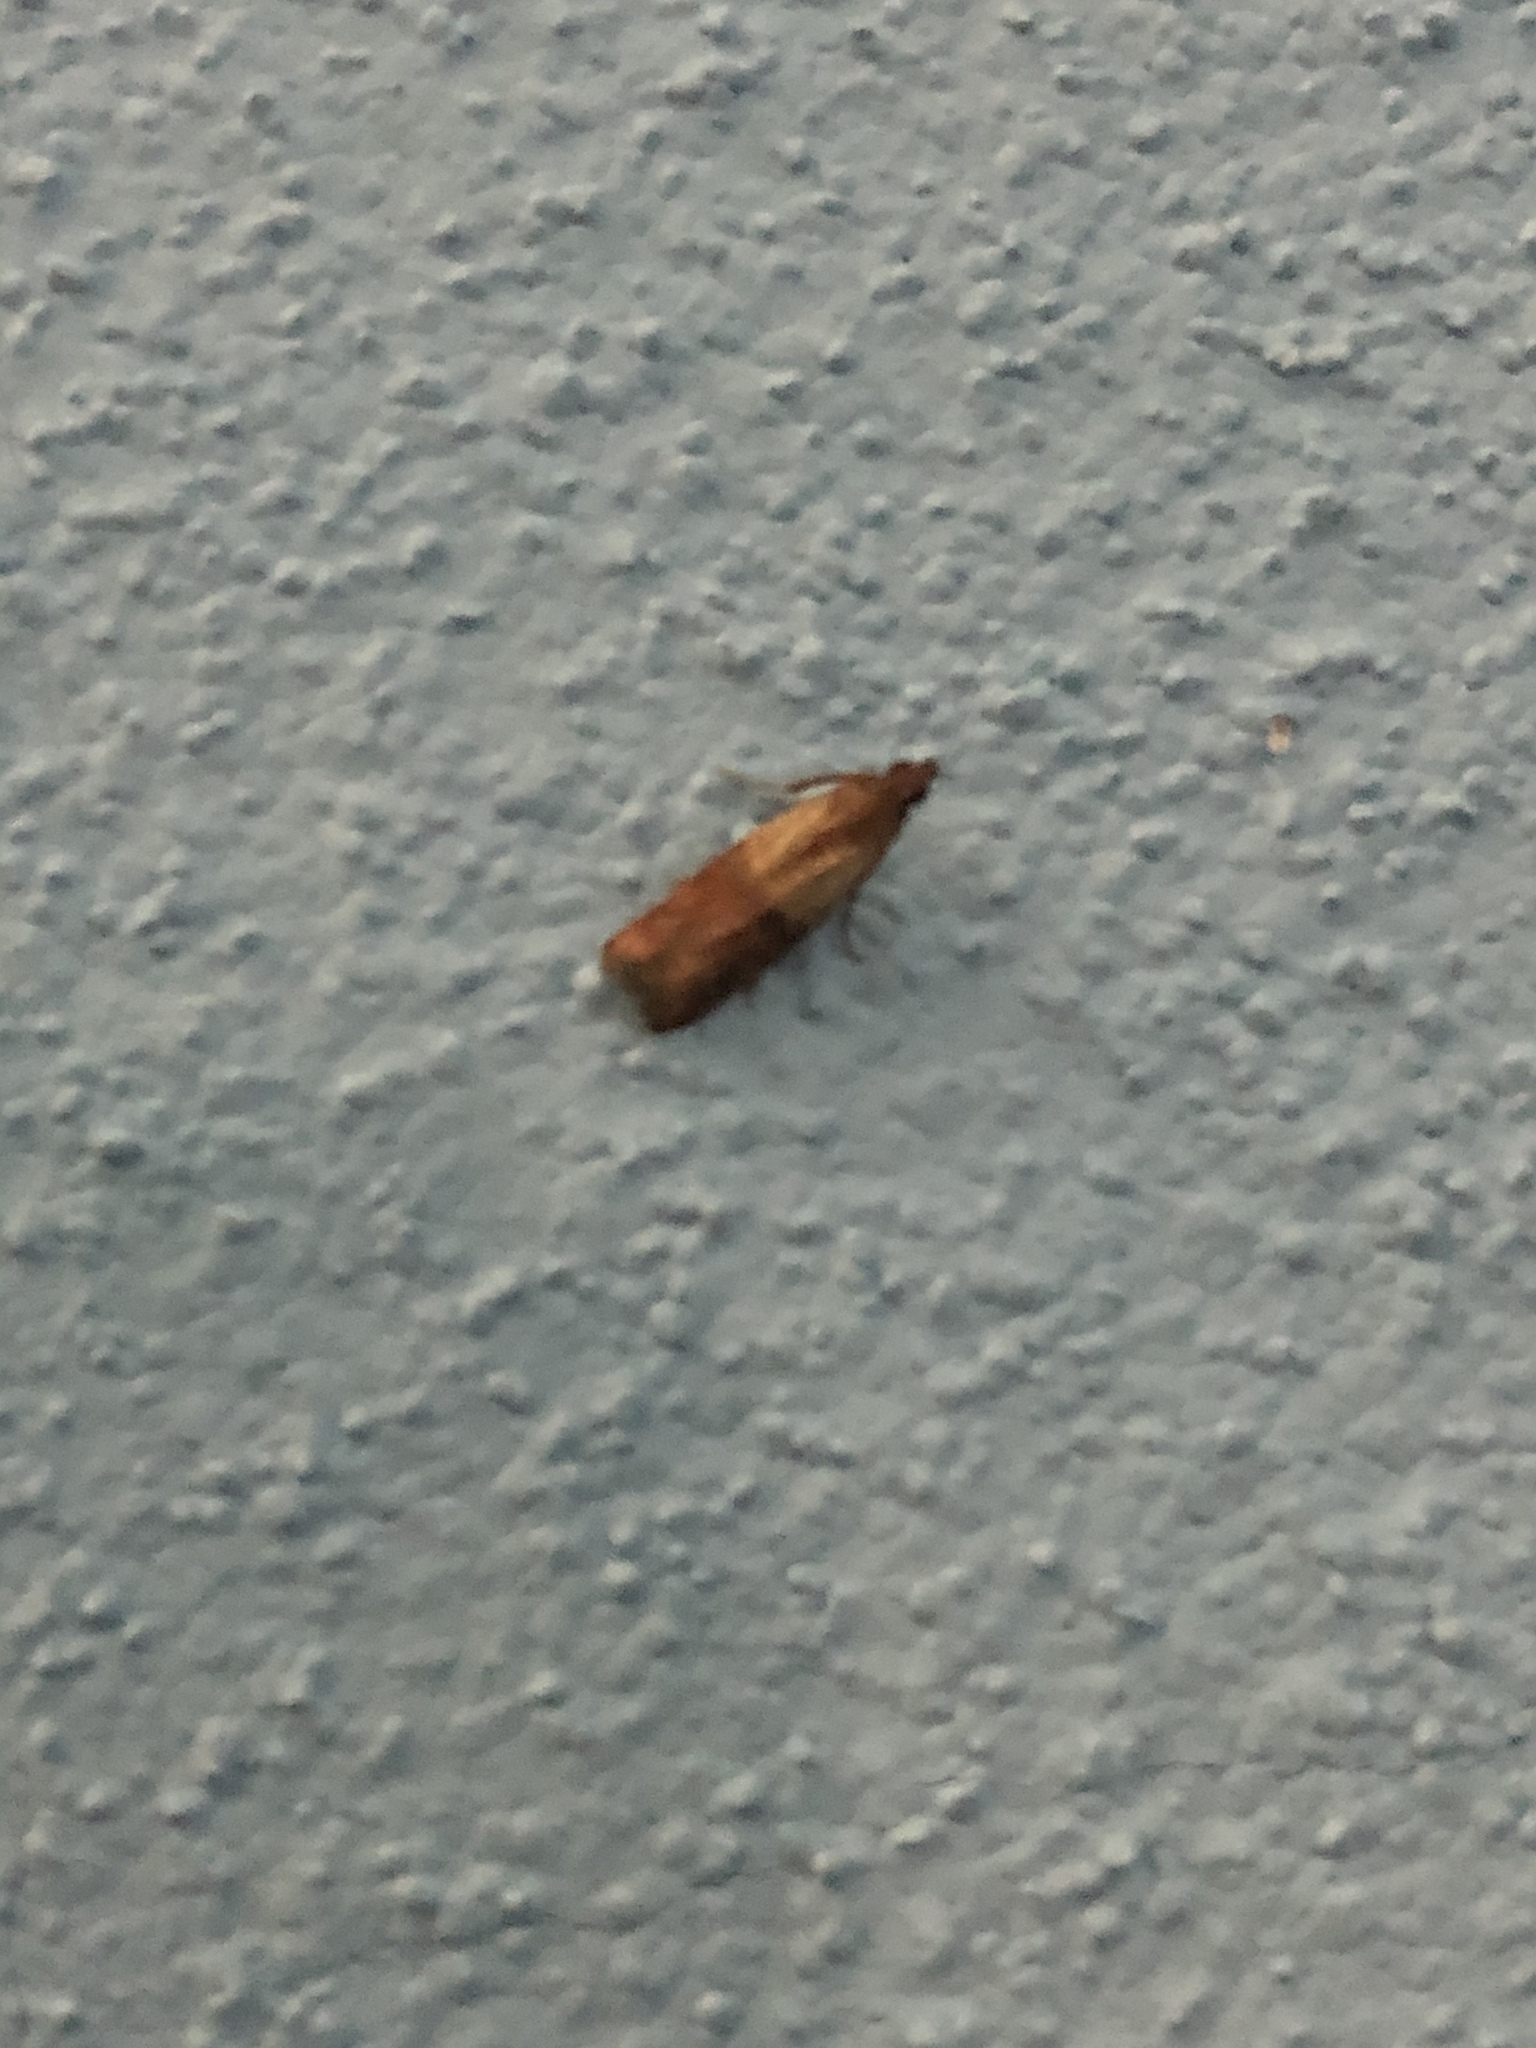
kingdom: Animalia
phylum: Arthropoda
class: Insecta
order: Lepidoptera
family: Pyralidae
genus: Plodia
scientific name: Plodia interpunctella
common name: Indian meal moth
